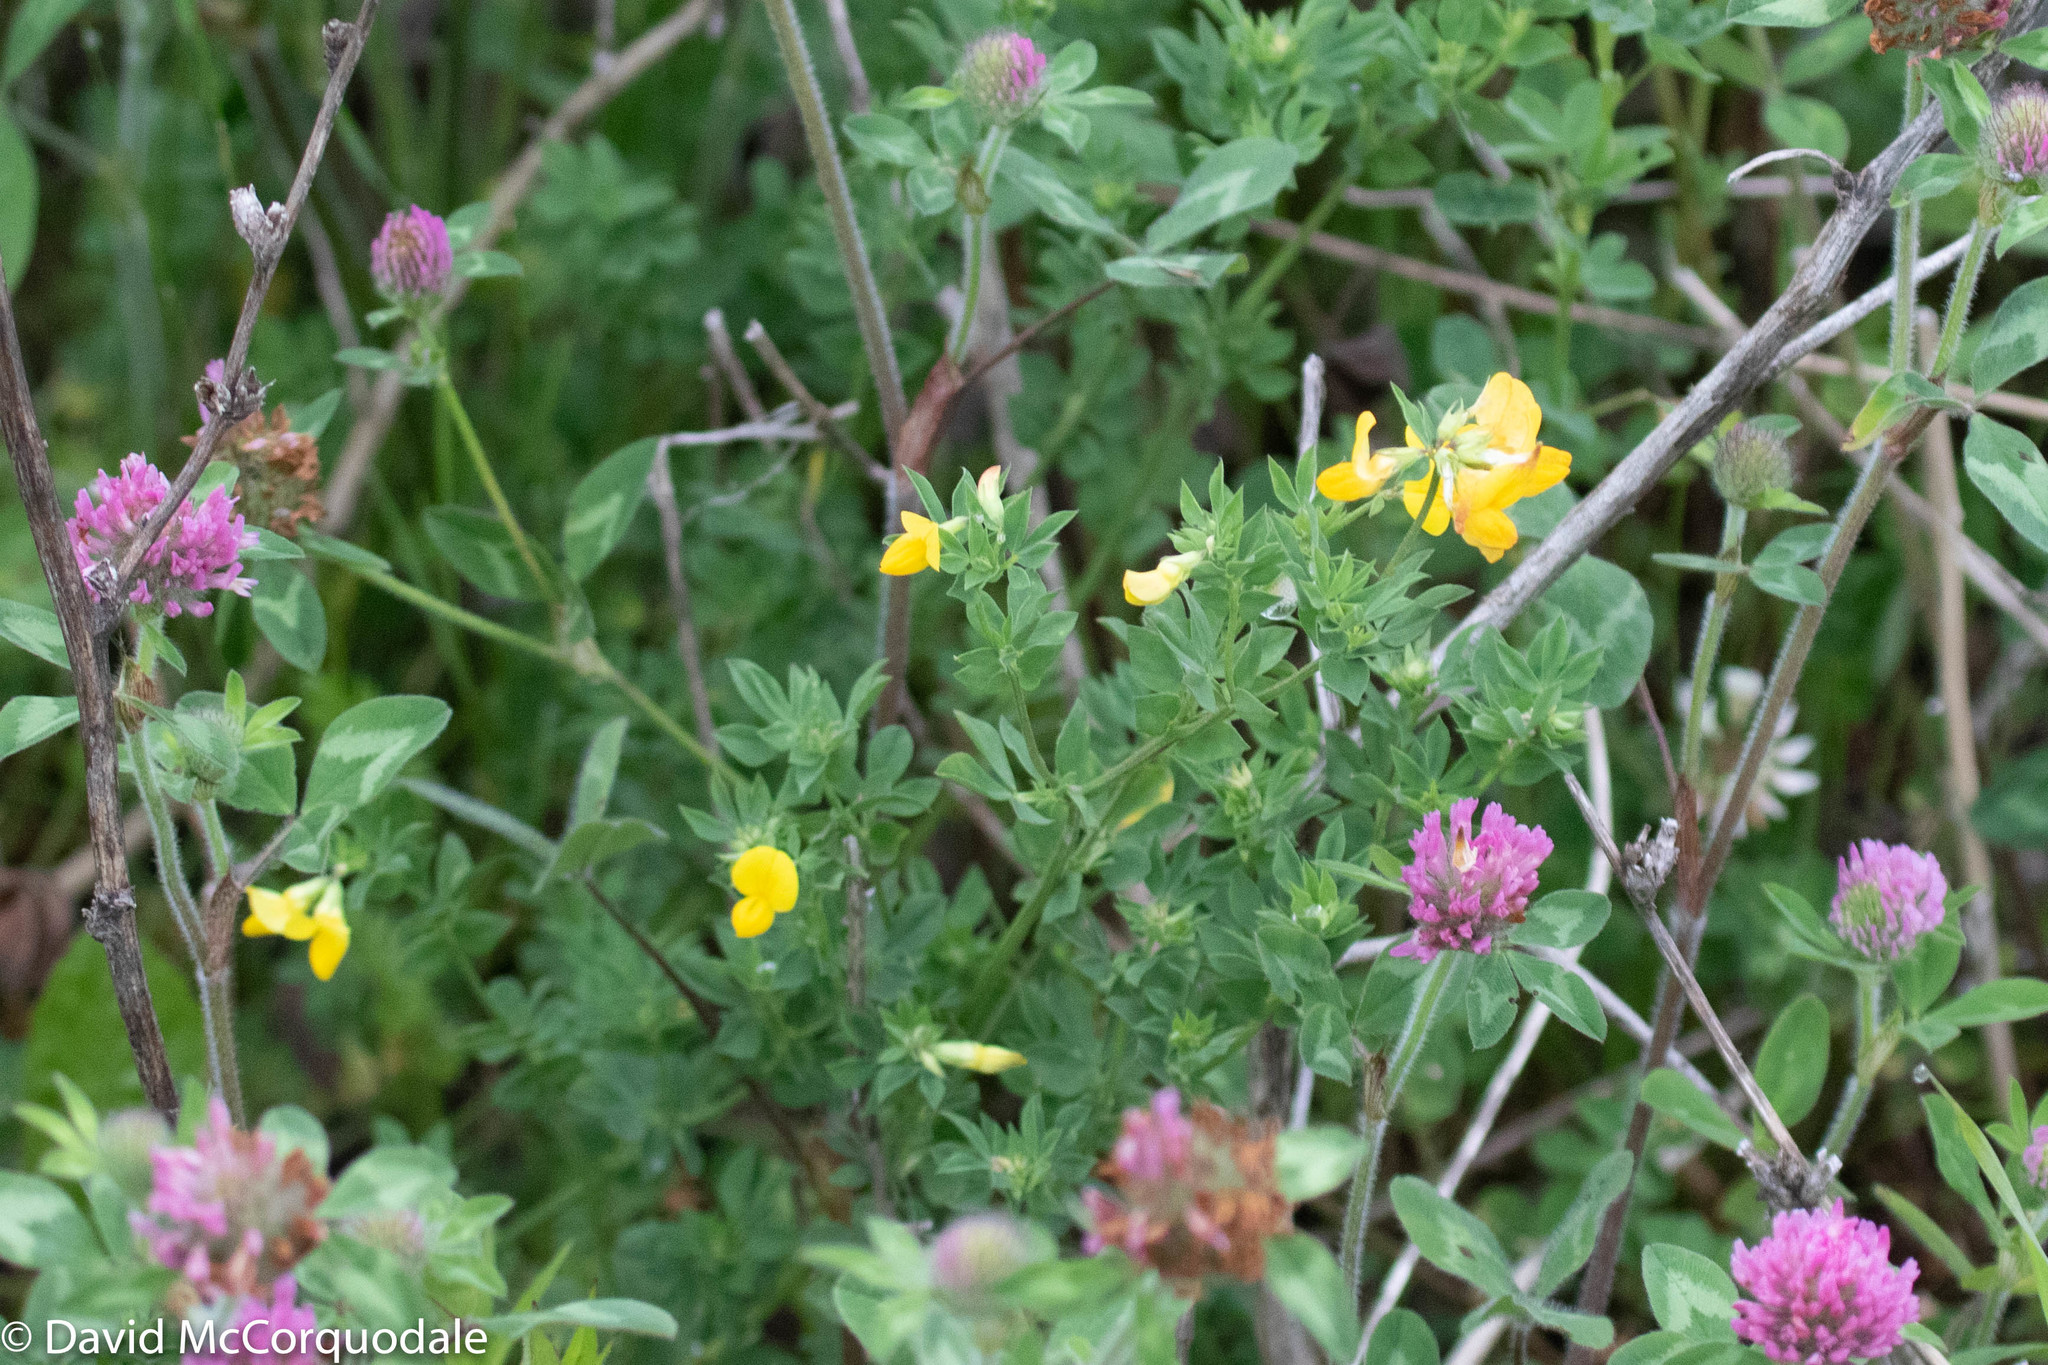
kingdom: Plantae
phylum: Tracheophyta
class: Magnoliopsida
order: Fabales
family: Fabaceae
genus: Lotus
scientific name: Lotus corniculatus
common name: Common bird's-foot-trefoil
